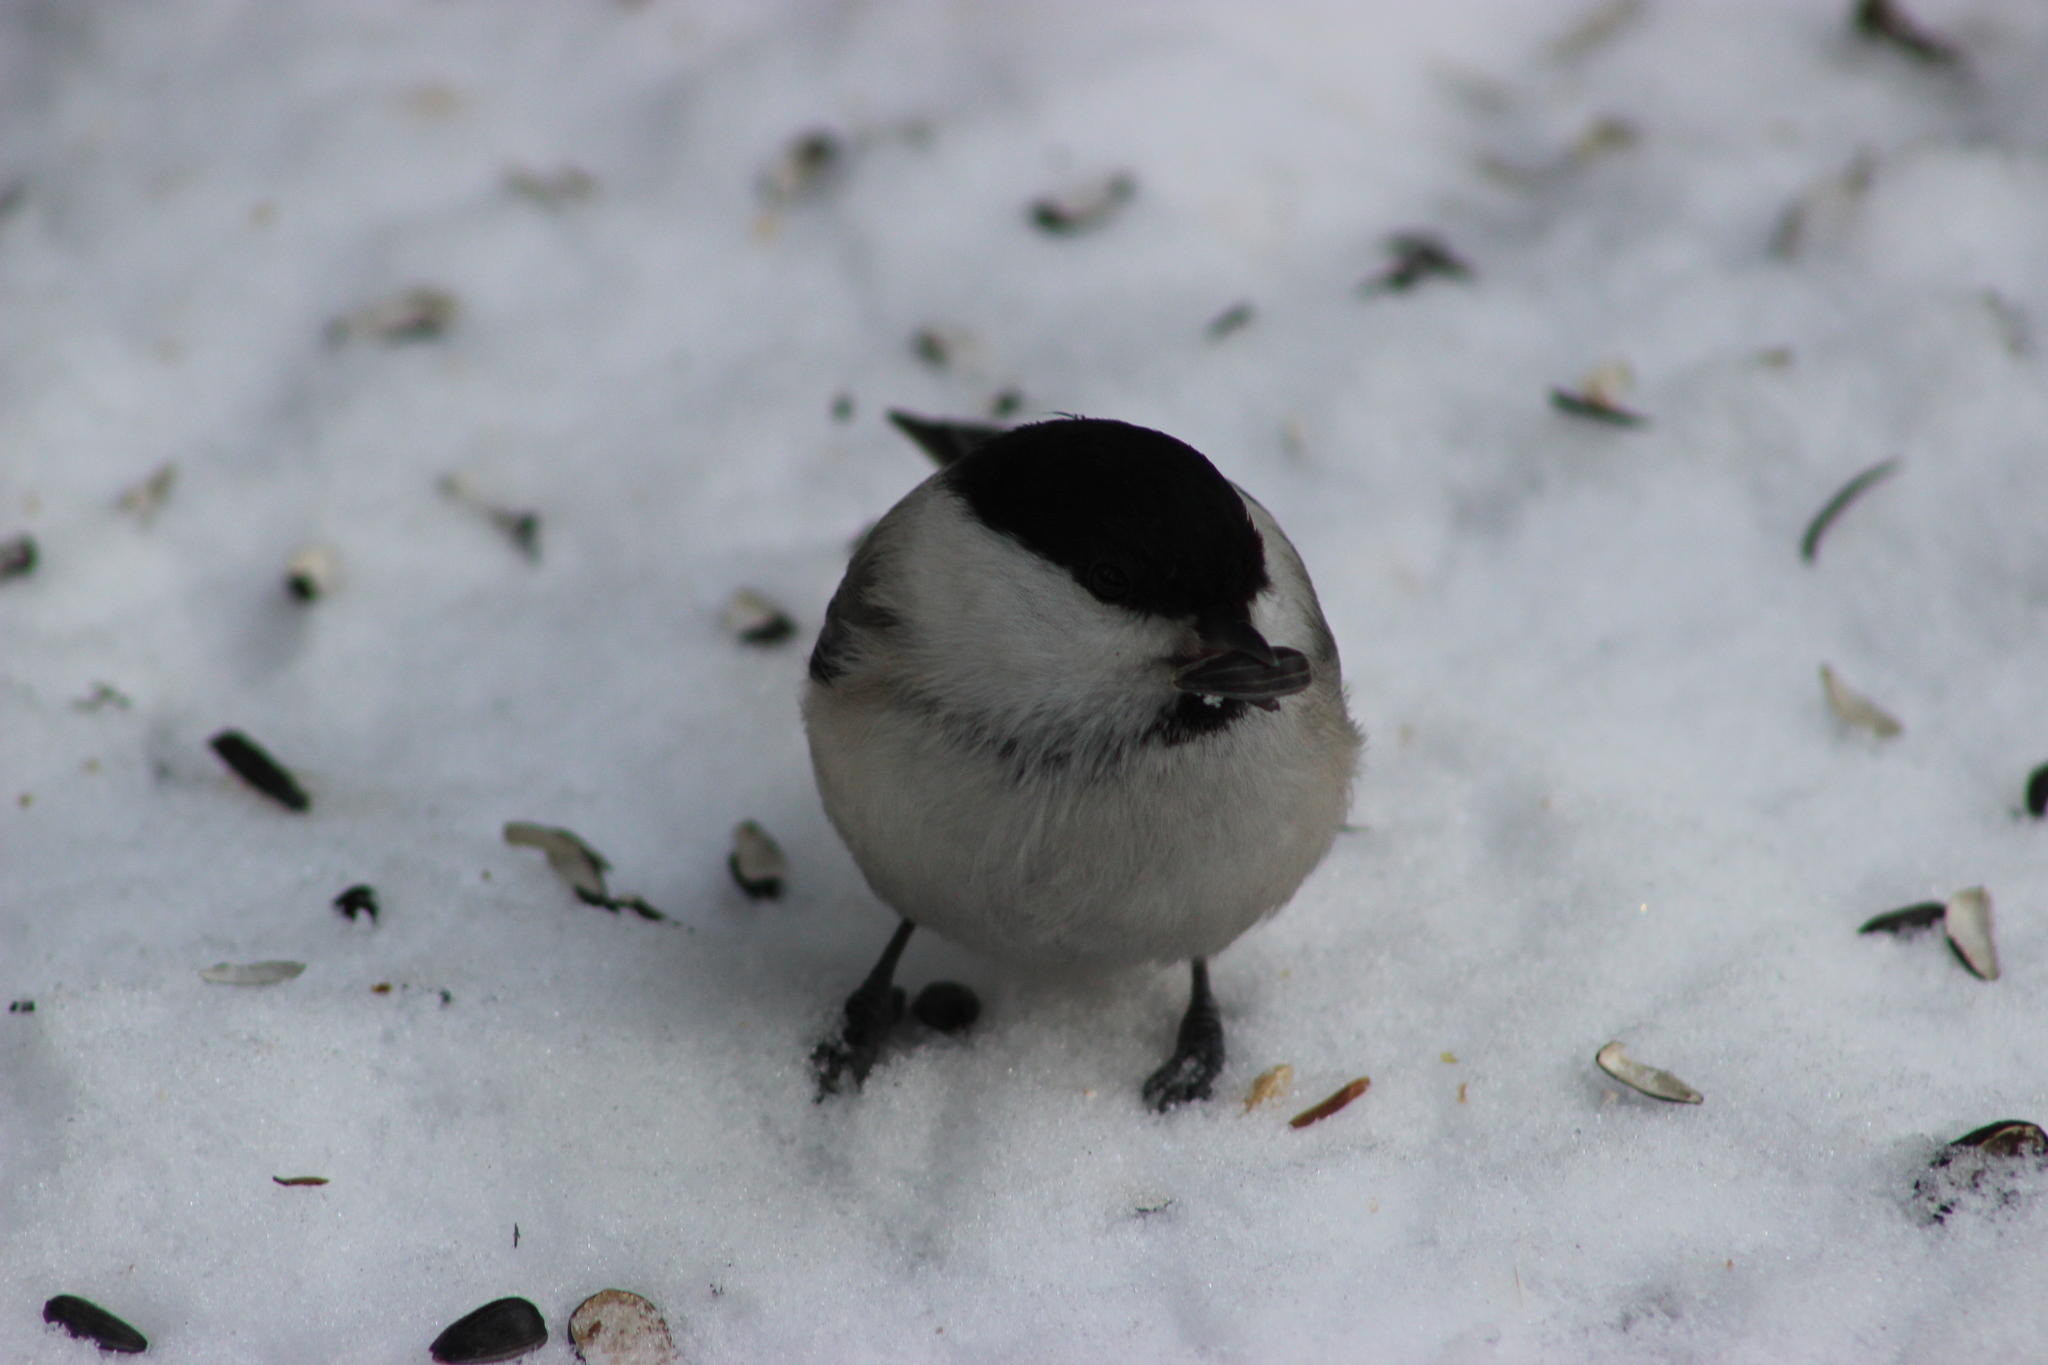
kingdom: Animalia
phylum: Chordata
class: Aves
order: Passeriformes
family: Paridae
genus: Poecile
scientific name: Poecile montanus
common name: Willow tit
